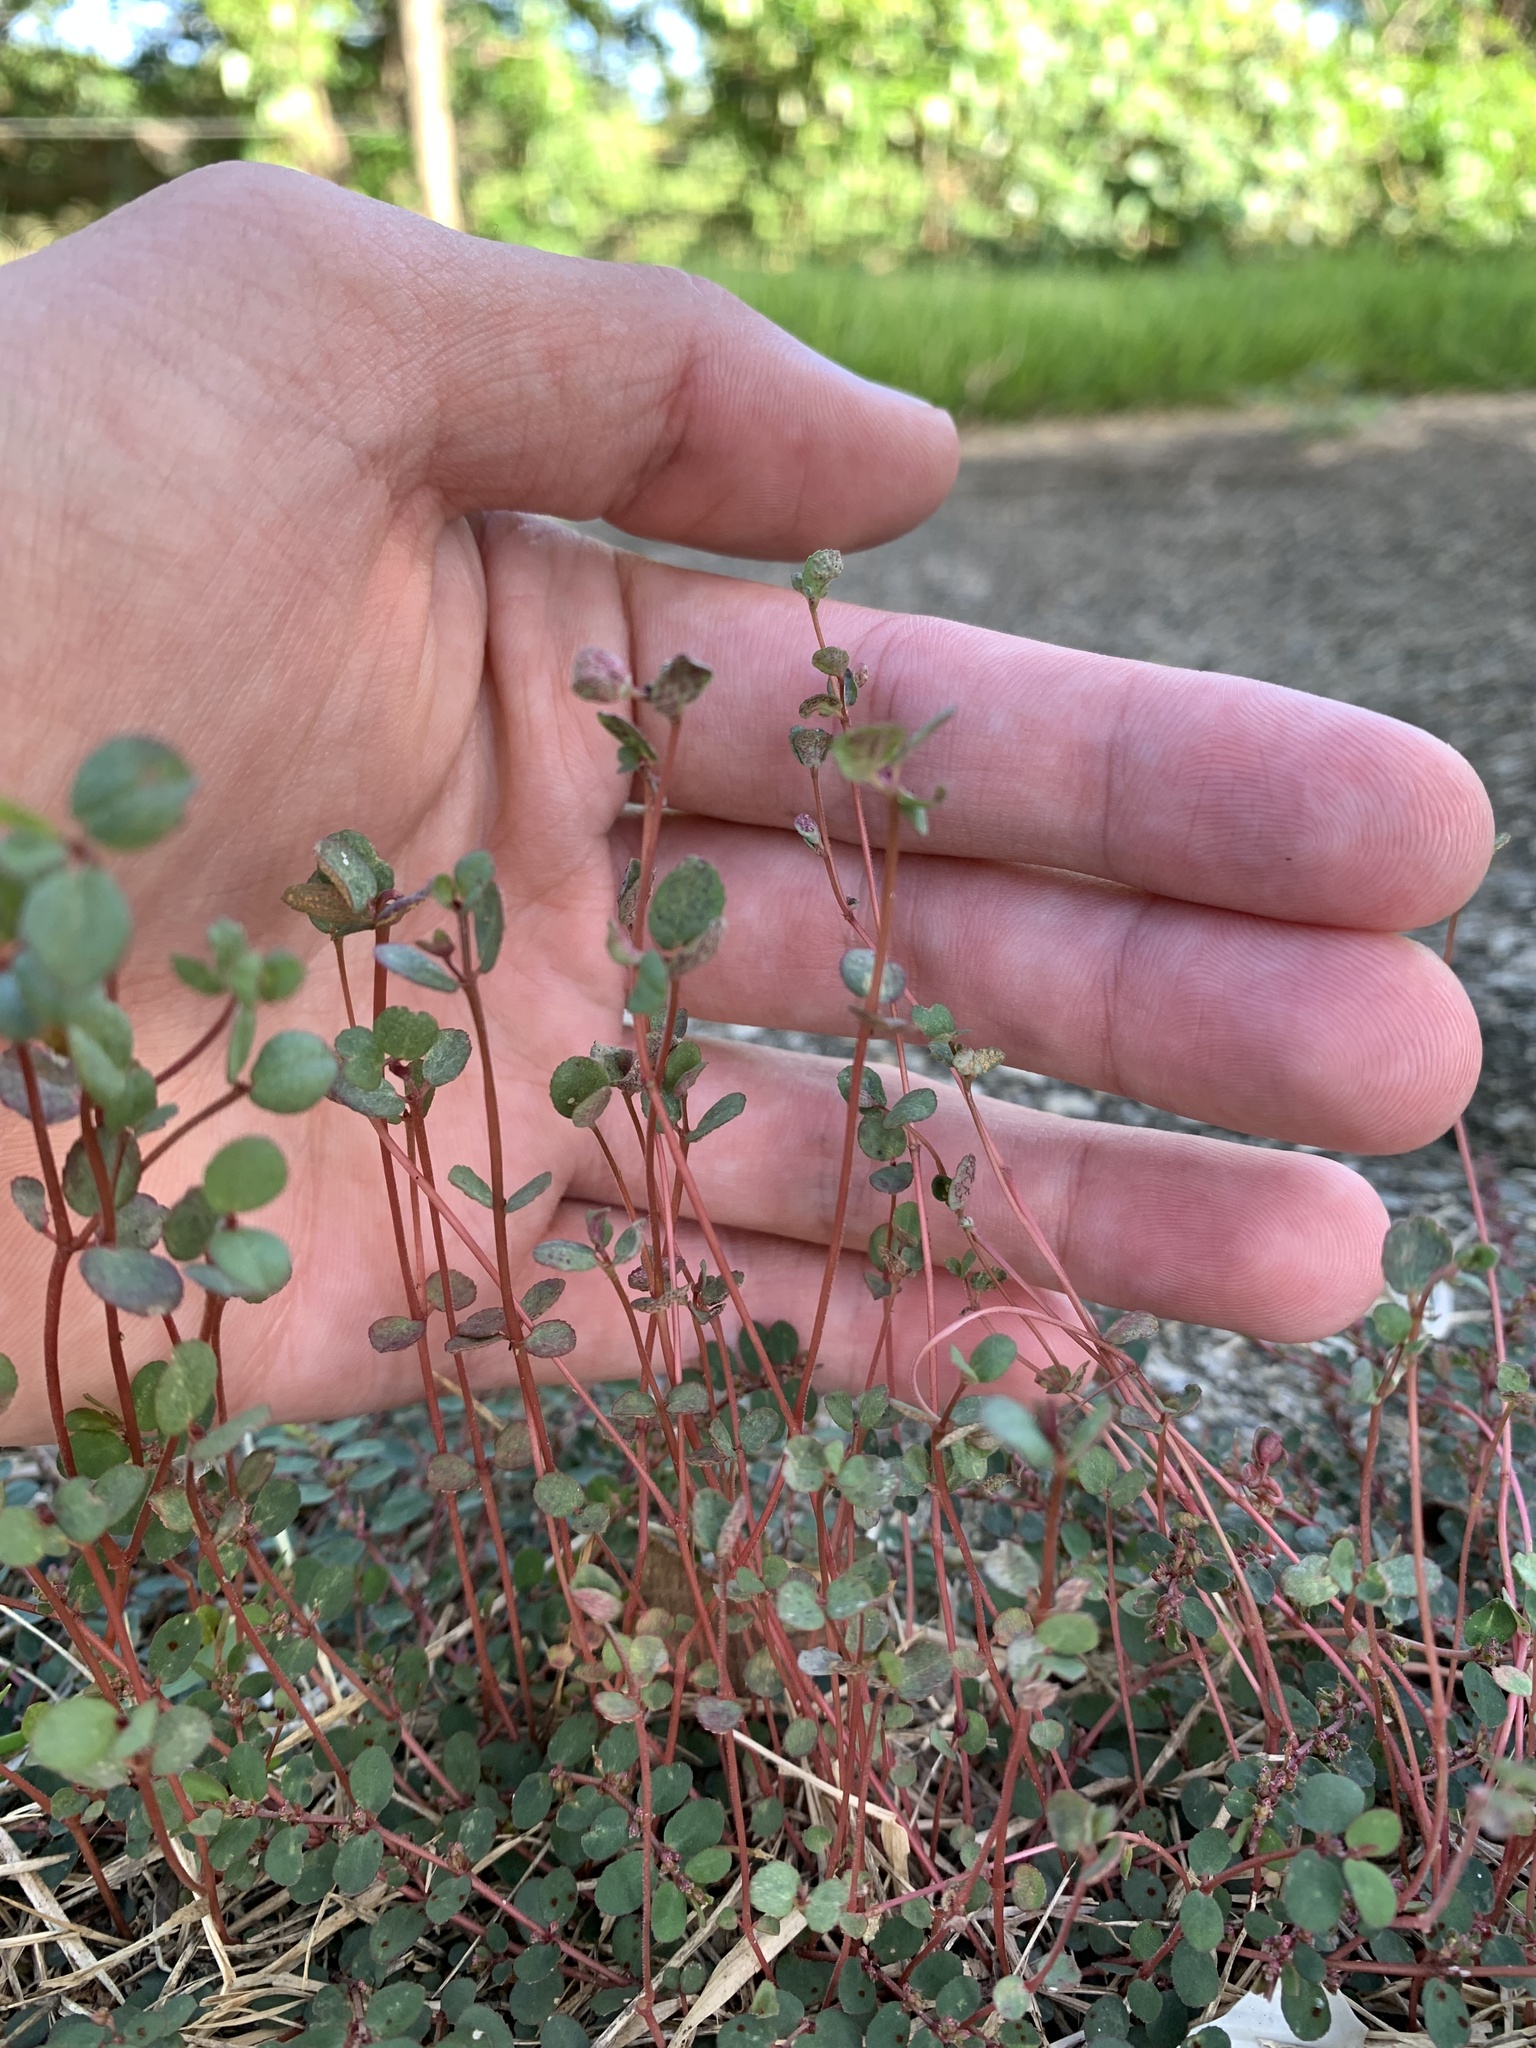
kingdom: Plantae
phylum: Tracheophyta
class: Magnoliopsida
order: Malpighiales
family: Euphorbiaceae
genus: Euphorbia
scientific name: Euphorbia prostrata
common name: Prostrate sandmat
